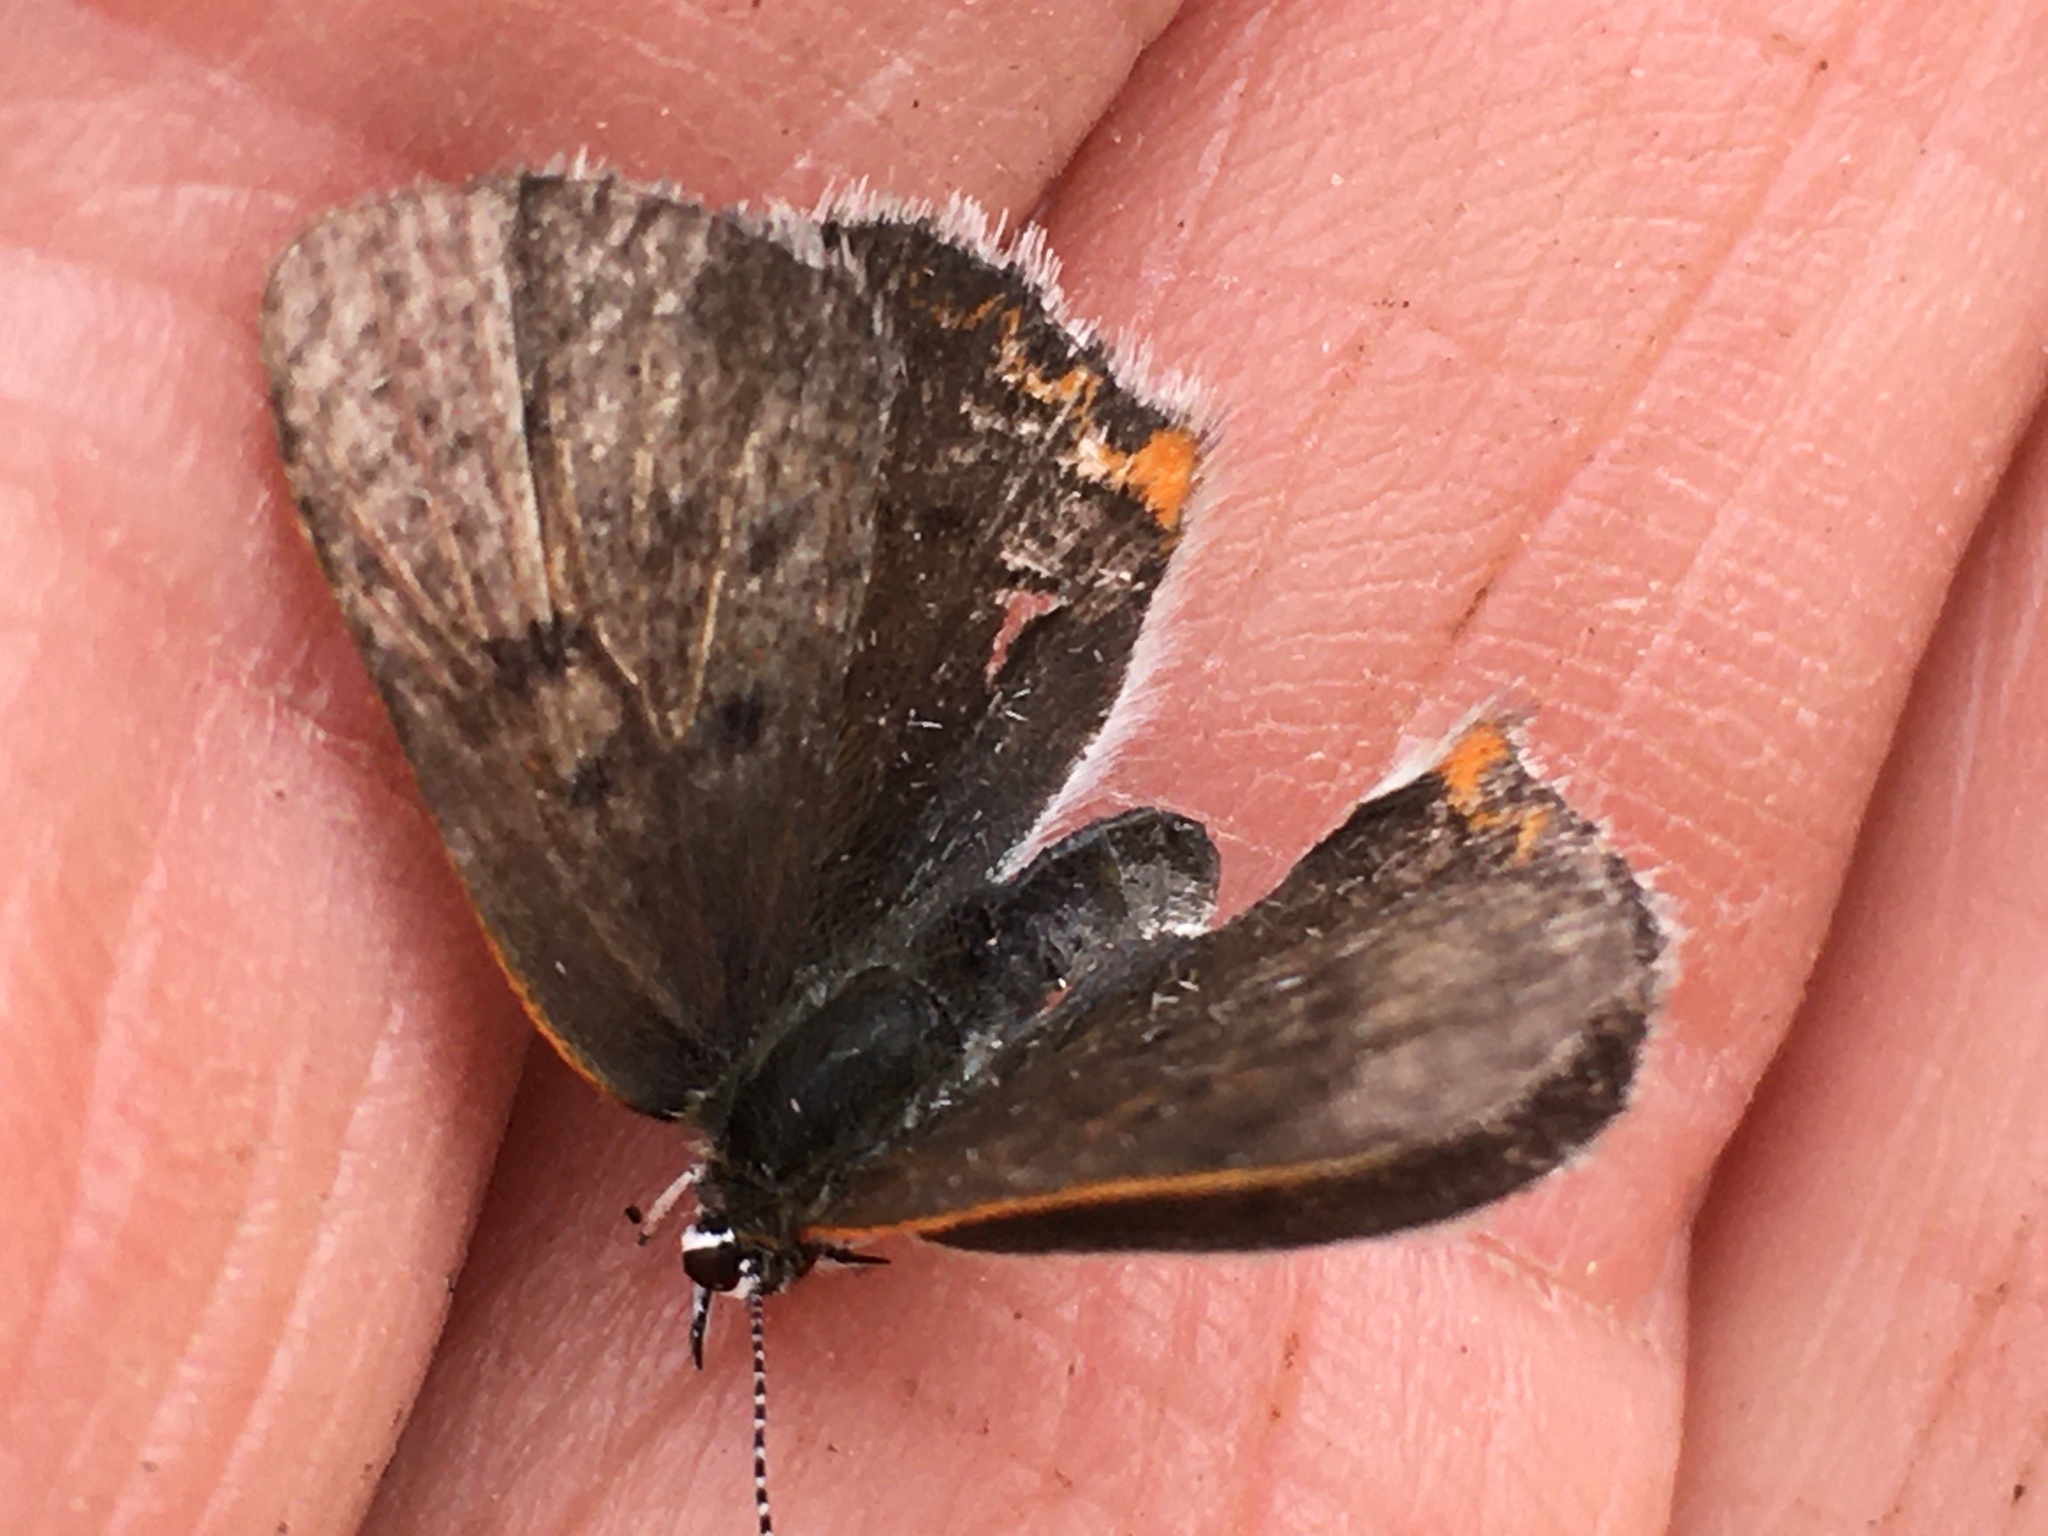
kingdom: Animalia
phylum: Arthropoda
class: Insecta
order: Lepidoptera
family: Lycaenidae
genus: Tharsalea
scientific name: Tharsalea epixanthe
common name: Bog copper
